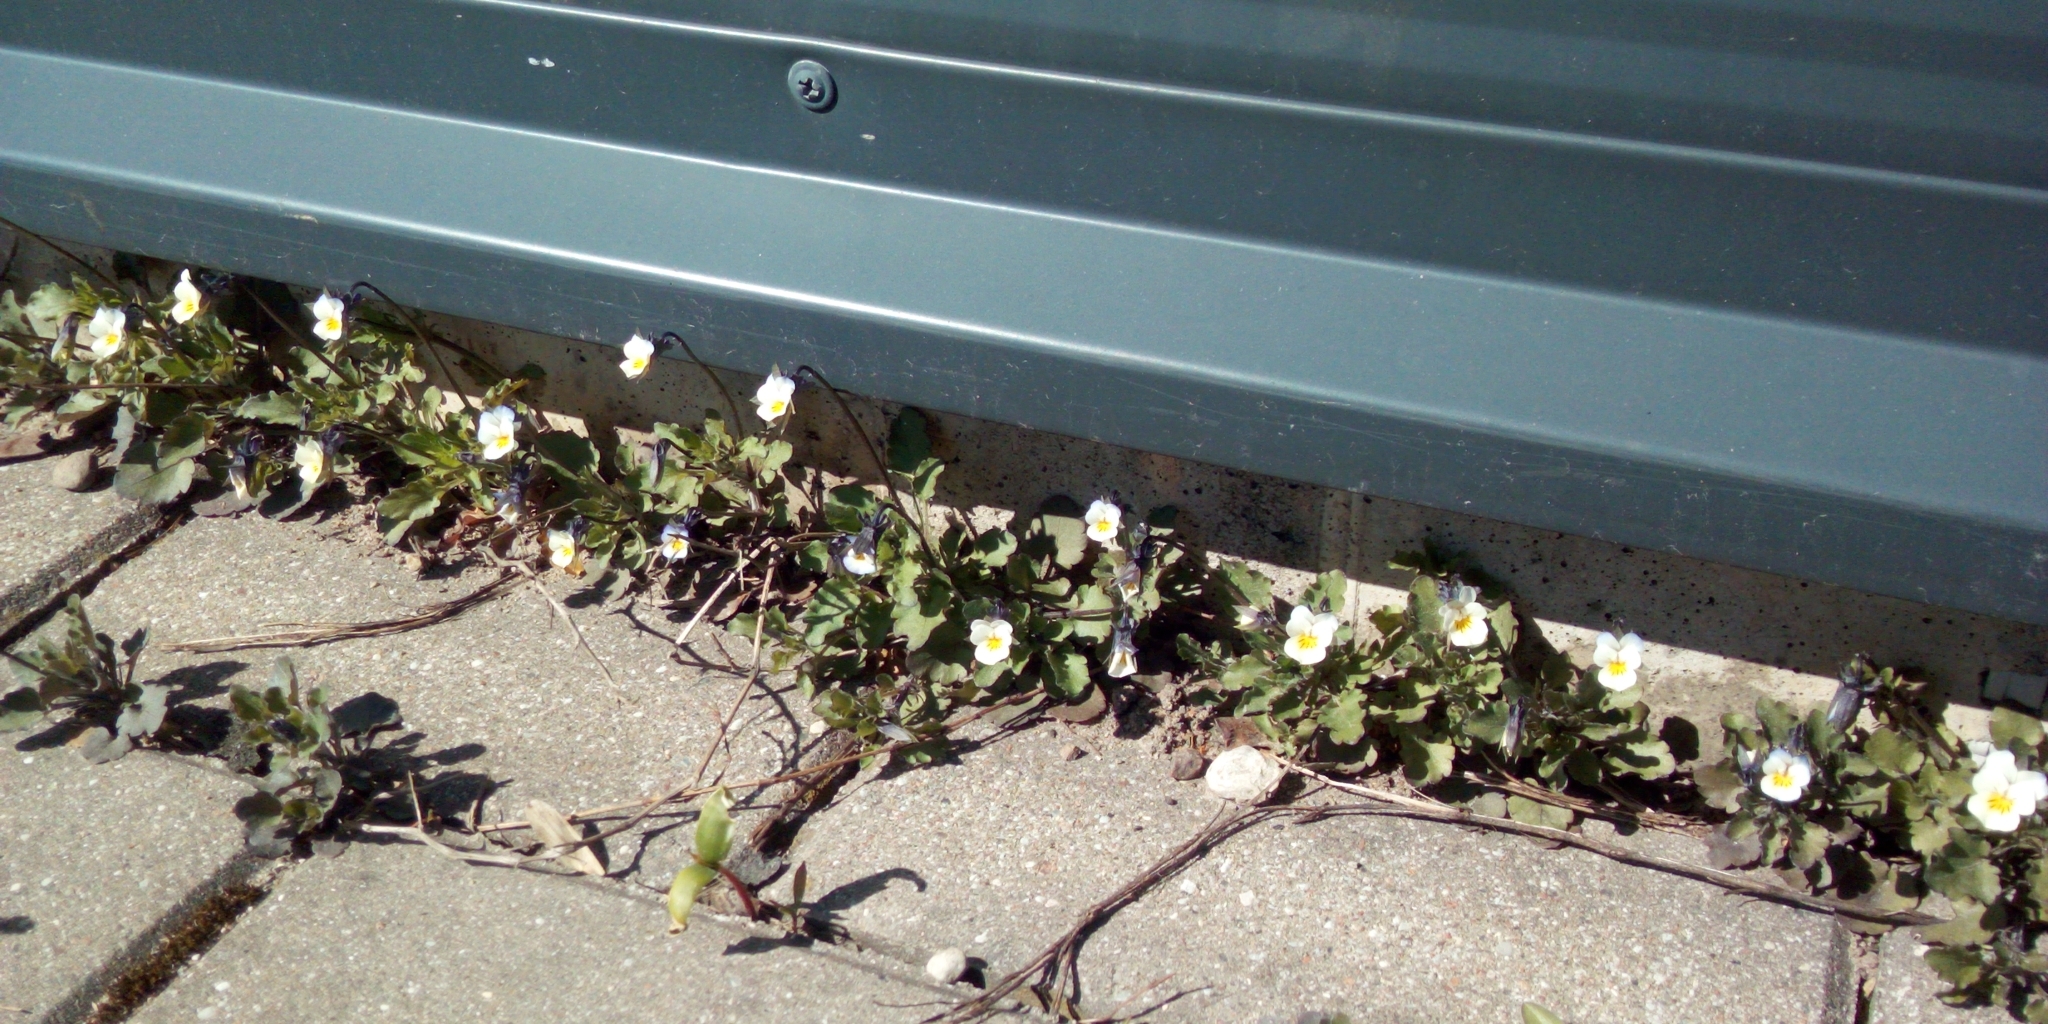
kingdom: Plantae
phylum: Tracheophyta
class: Magnoliopsida
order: Malpighiales
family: Violaceae
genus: Viola
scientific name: Viola arvensis
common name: Field pansy
